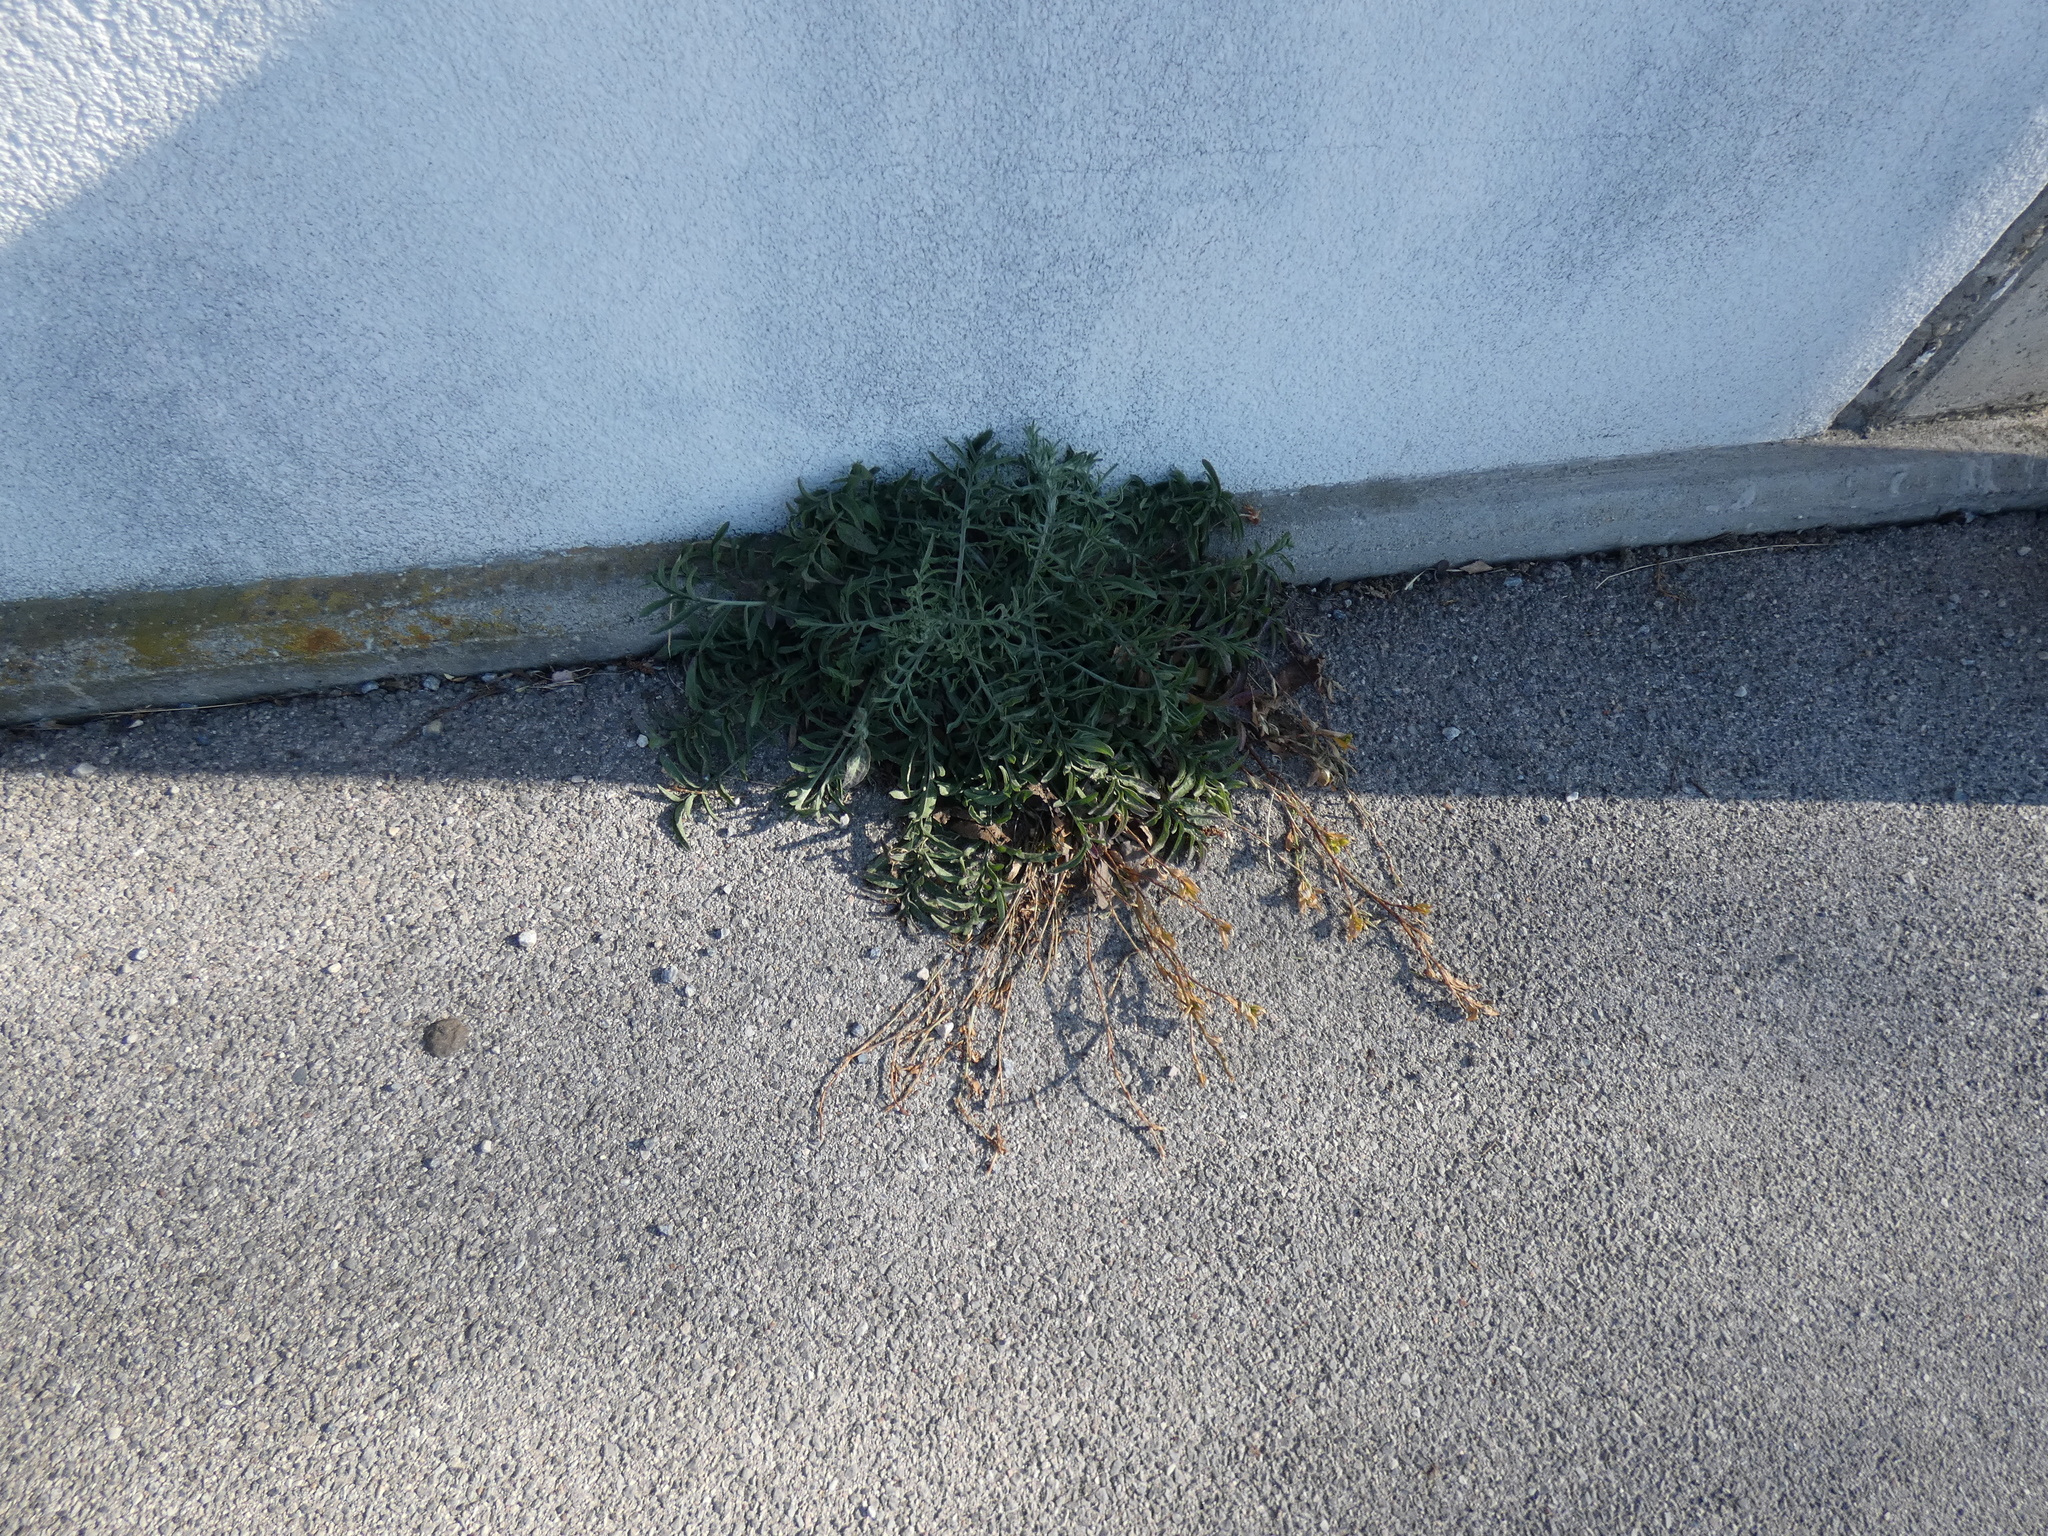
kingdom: Plantae
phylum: Tracheophyta
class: Magnoliopsida
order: Asterales
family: Asteraceae
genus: Centaurea
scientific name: Centaurea stoebe
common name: Spotted knapweed
